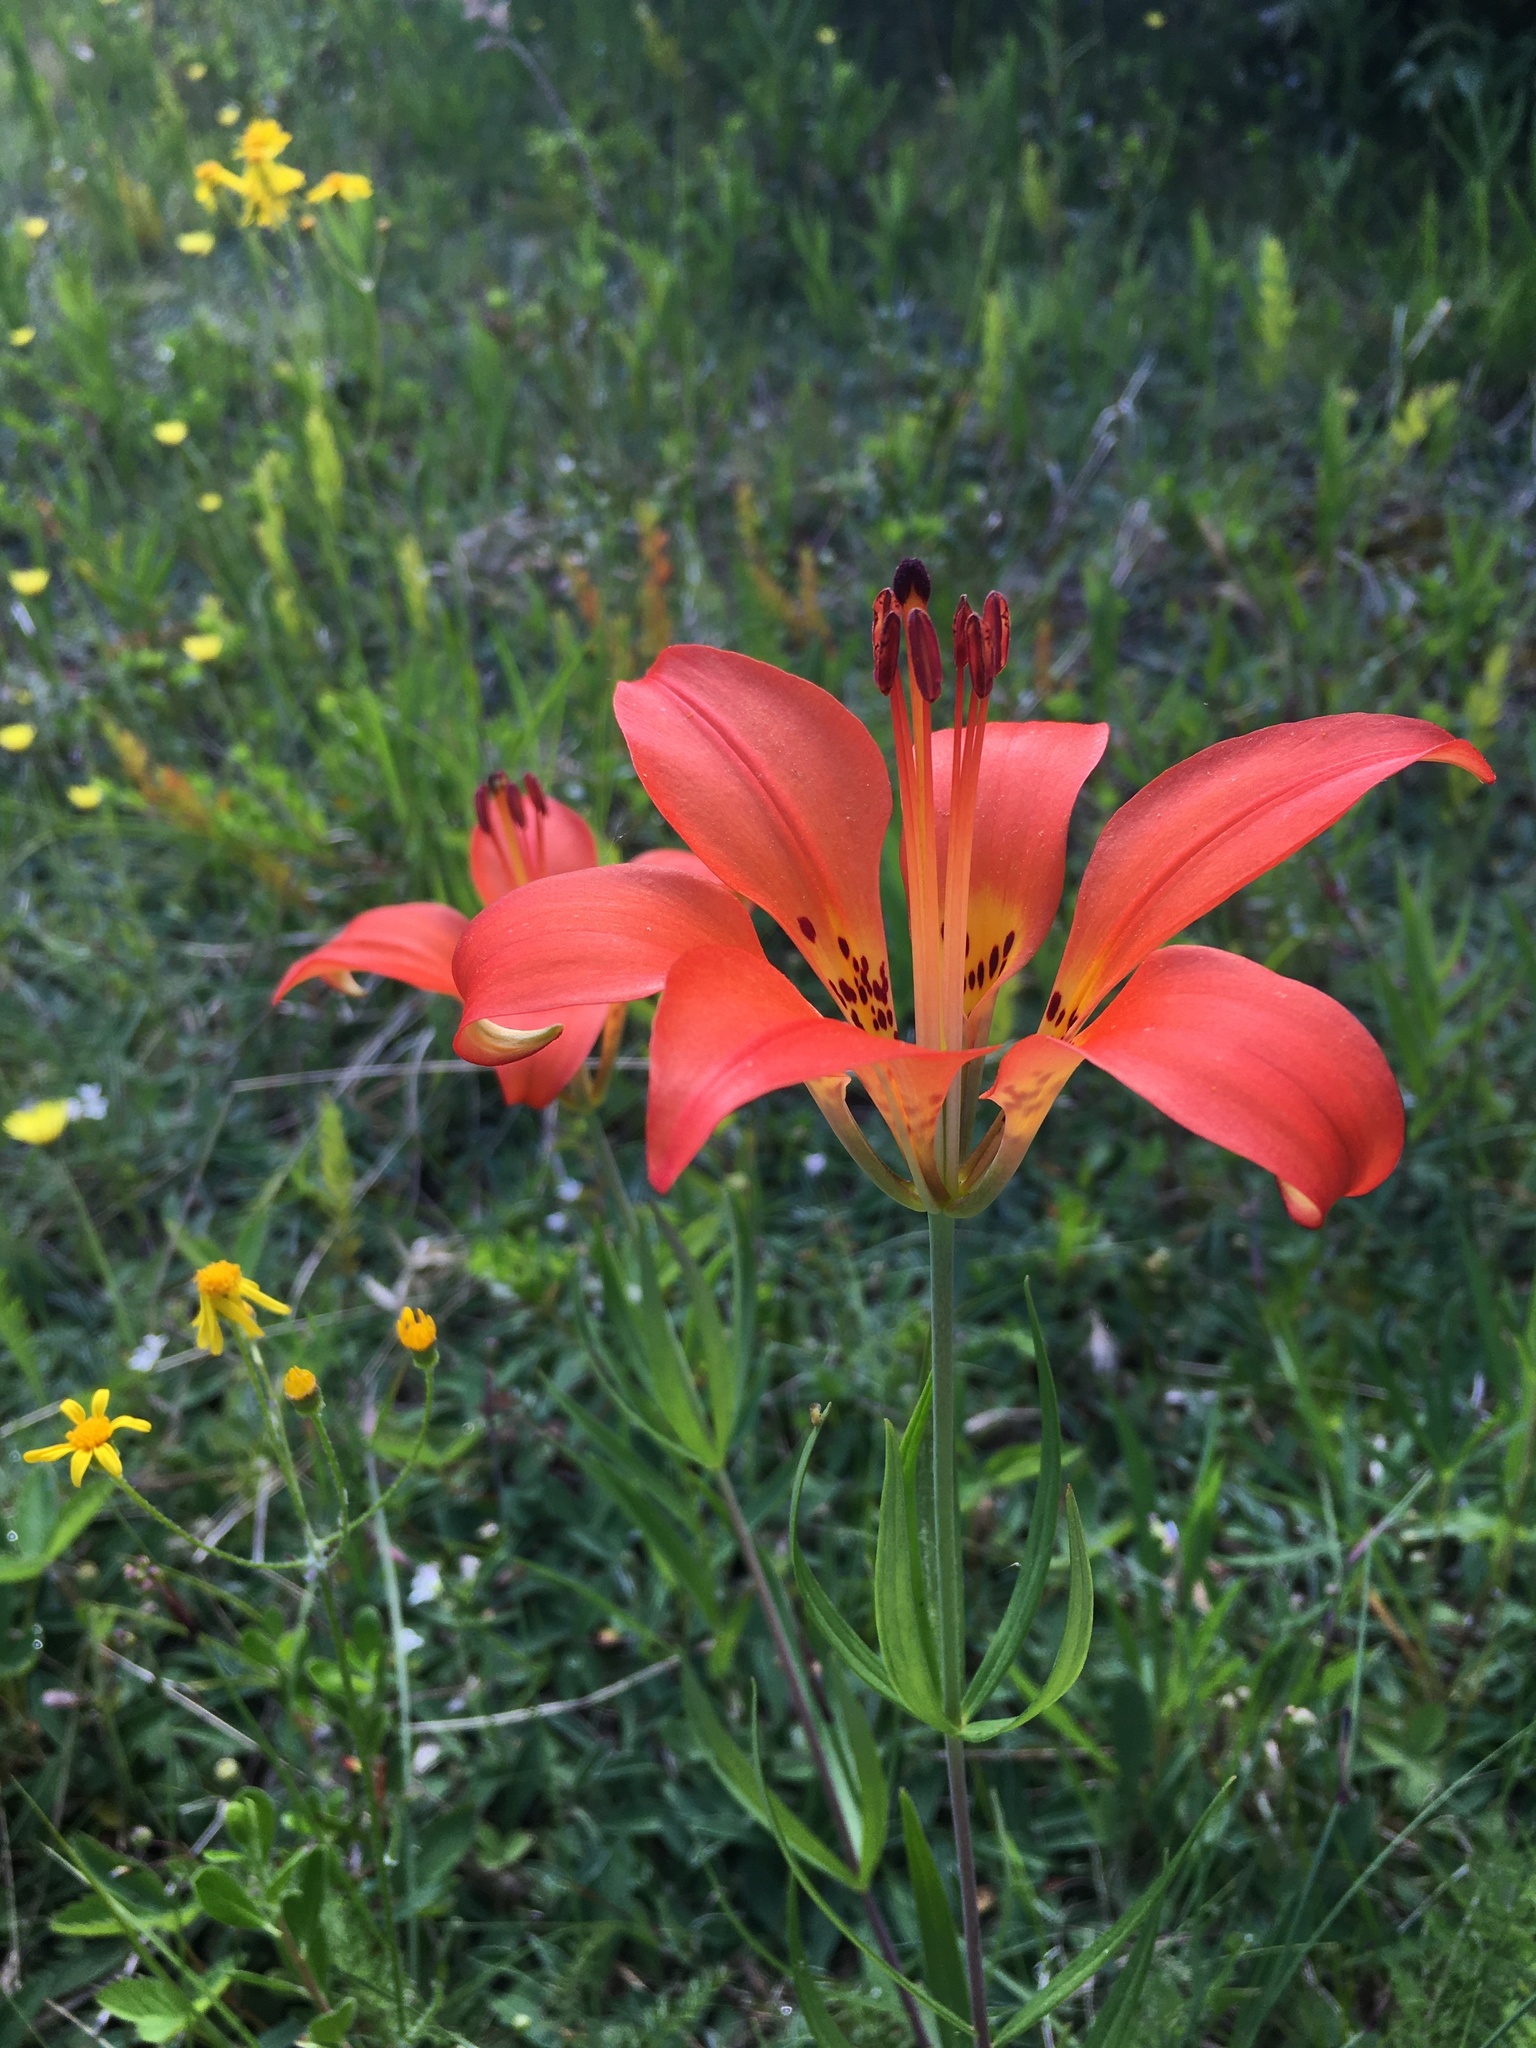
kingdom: Plantae
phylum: Tracheophyta
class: Liliopsida
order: Liliales
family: Liliaceae
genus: Lilium
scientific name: Lilium philadelphicum
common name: Red lily
